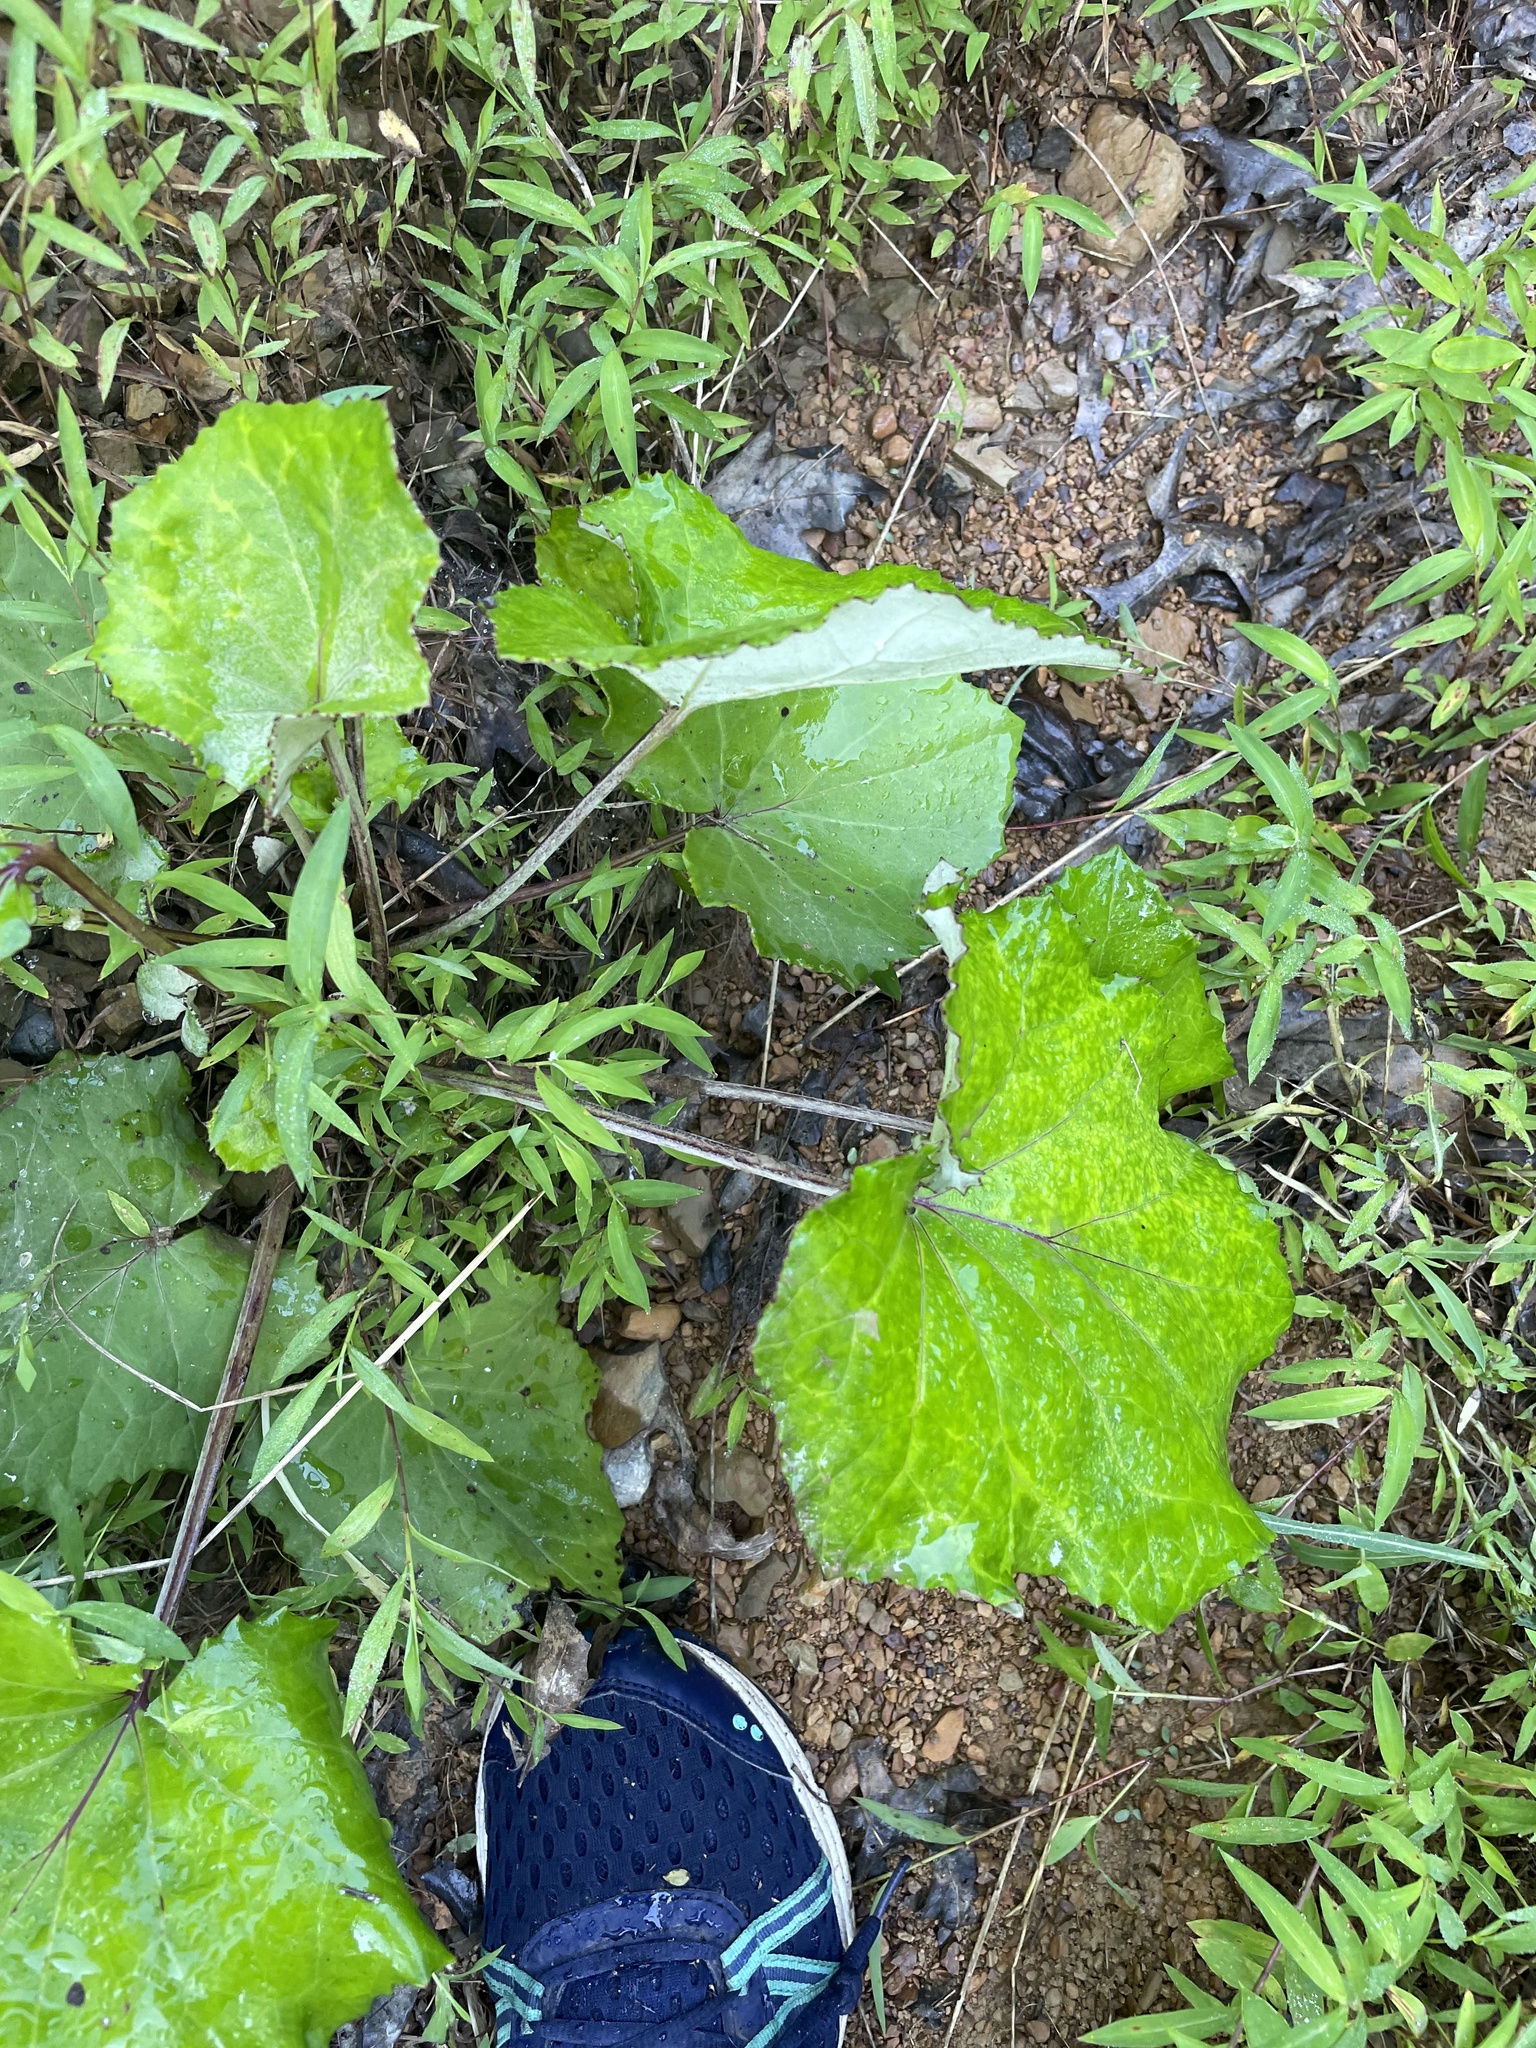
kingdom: Plantae
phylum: Tracheophyta
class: Magnoliopsida
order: Asterales
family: Asteraceae
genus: Tussilago
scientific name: Tussilago farfara
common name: Coltsfoot
